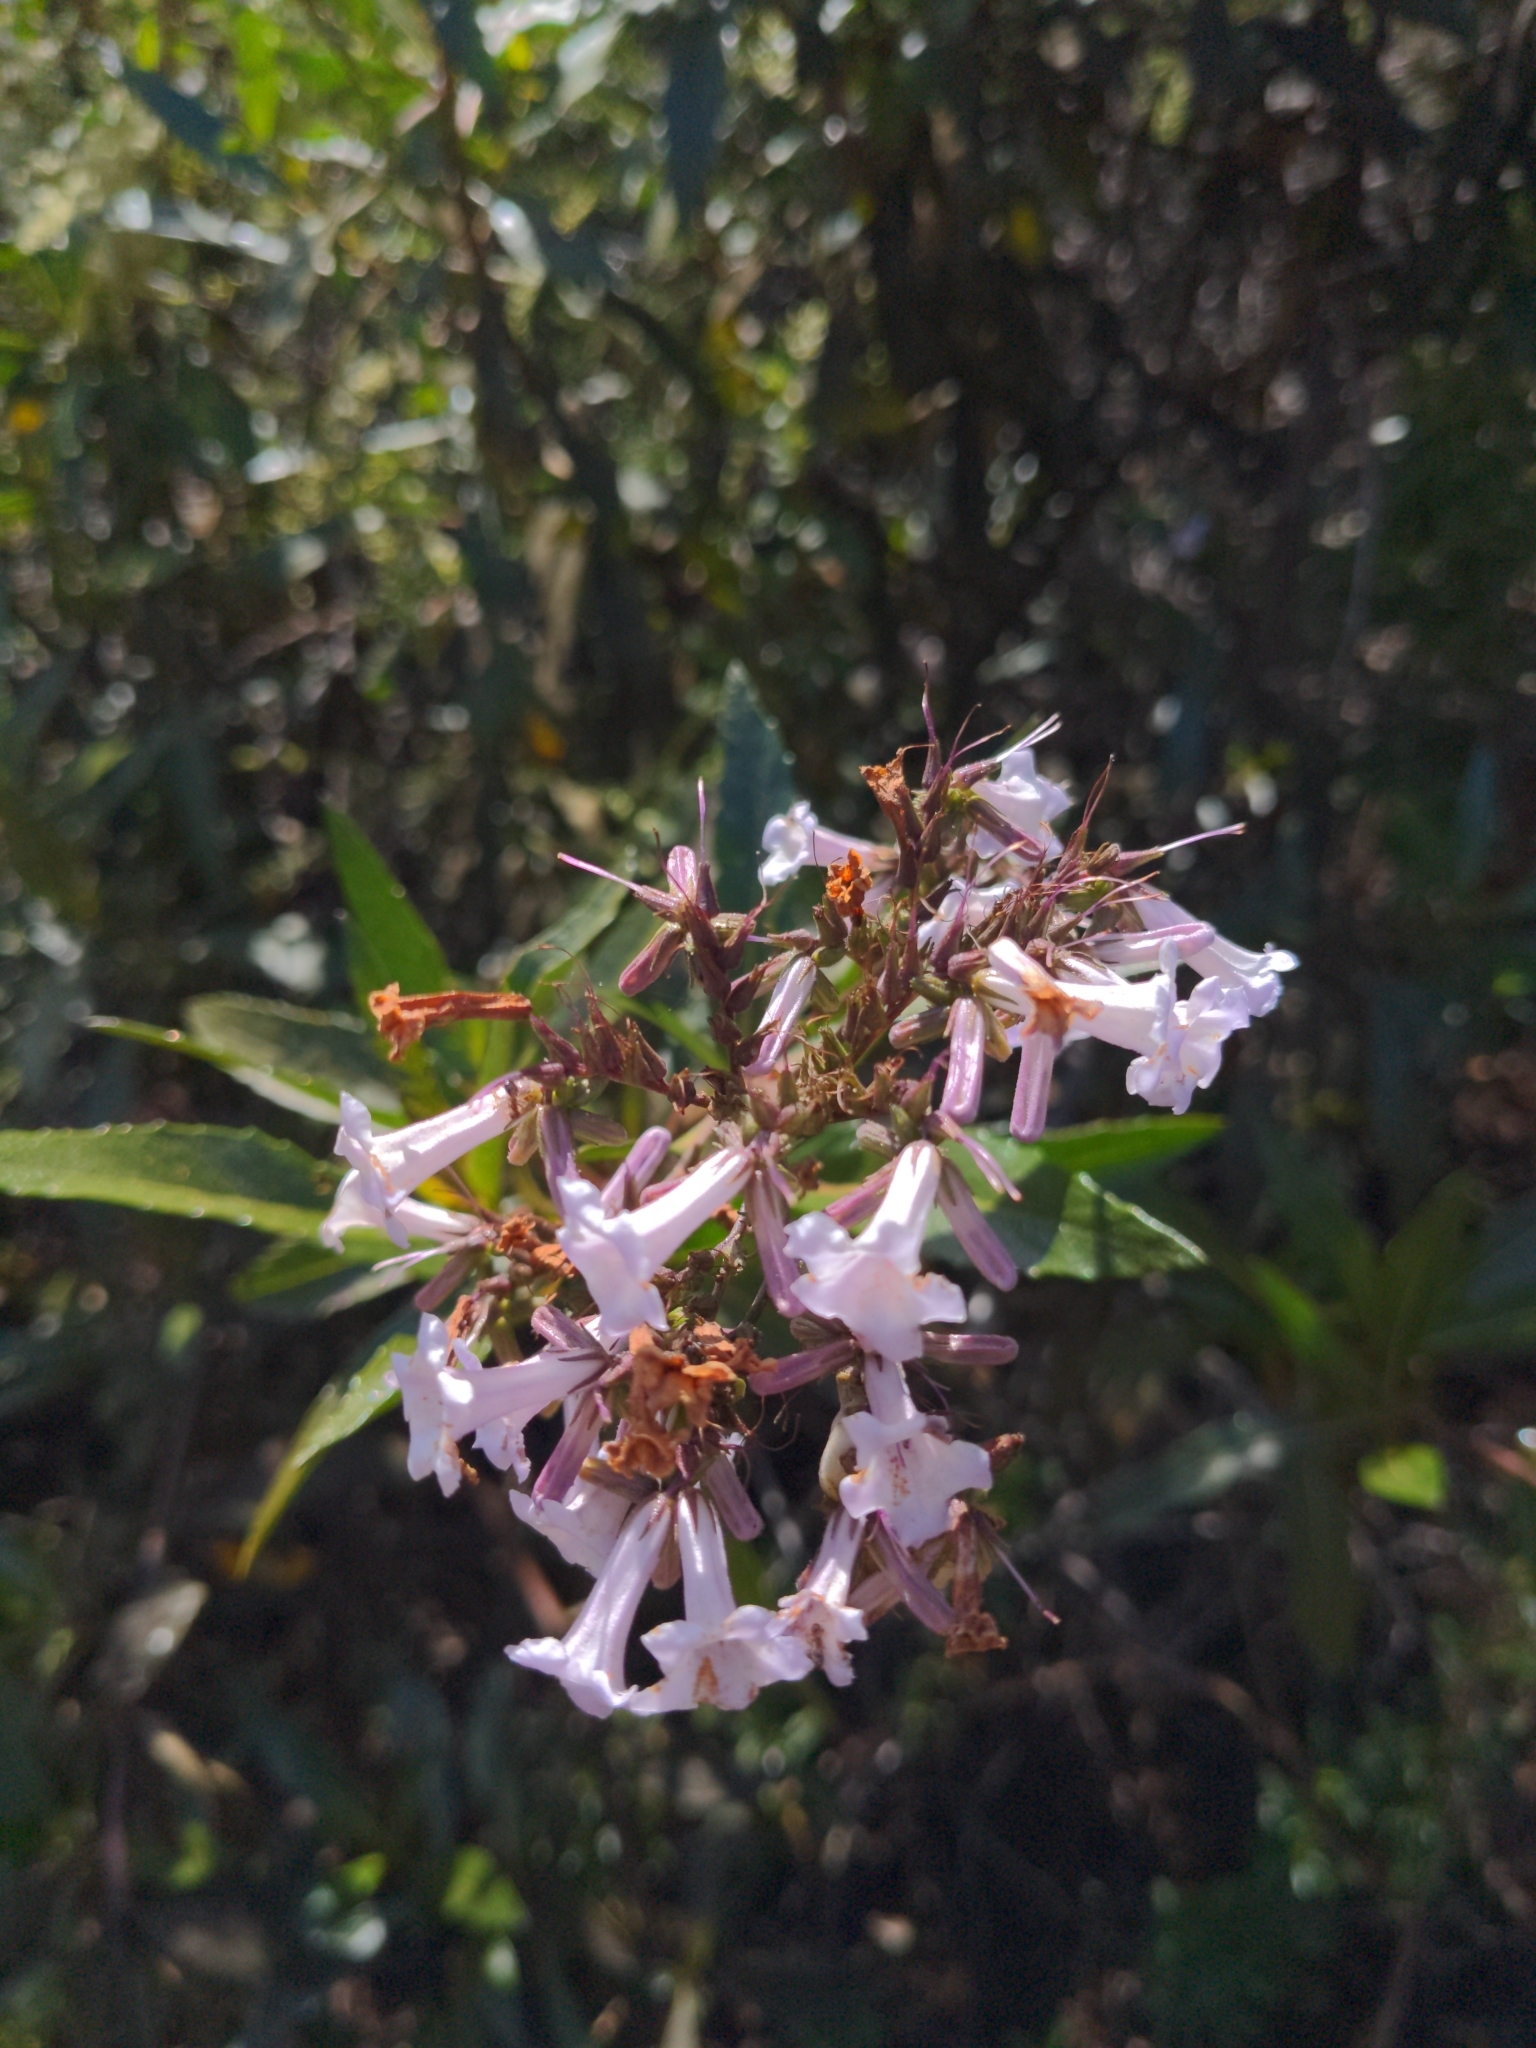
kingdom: Plantae
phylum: Tracheophyta
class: Magnoliopsida
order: Boraginales
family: Namaceae
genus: Eriodictyon
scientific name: Eriodictyon californicum
